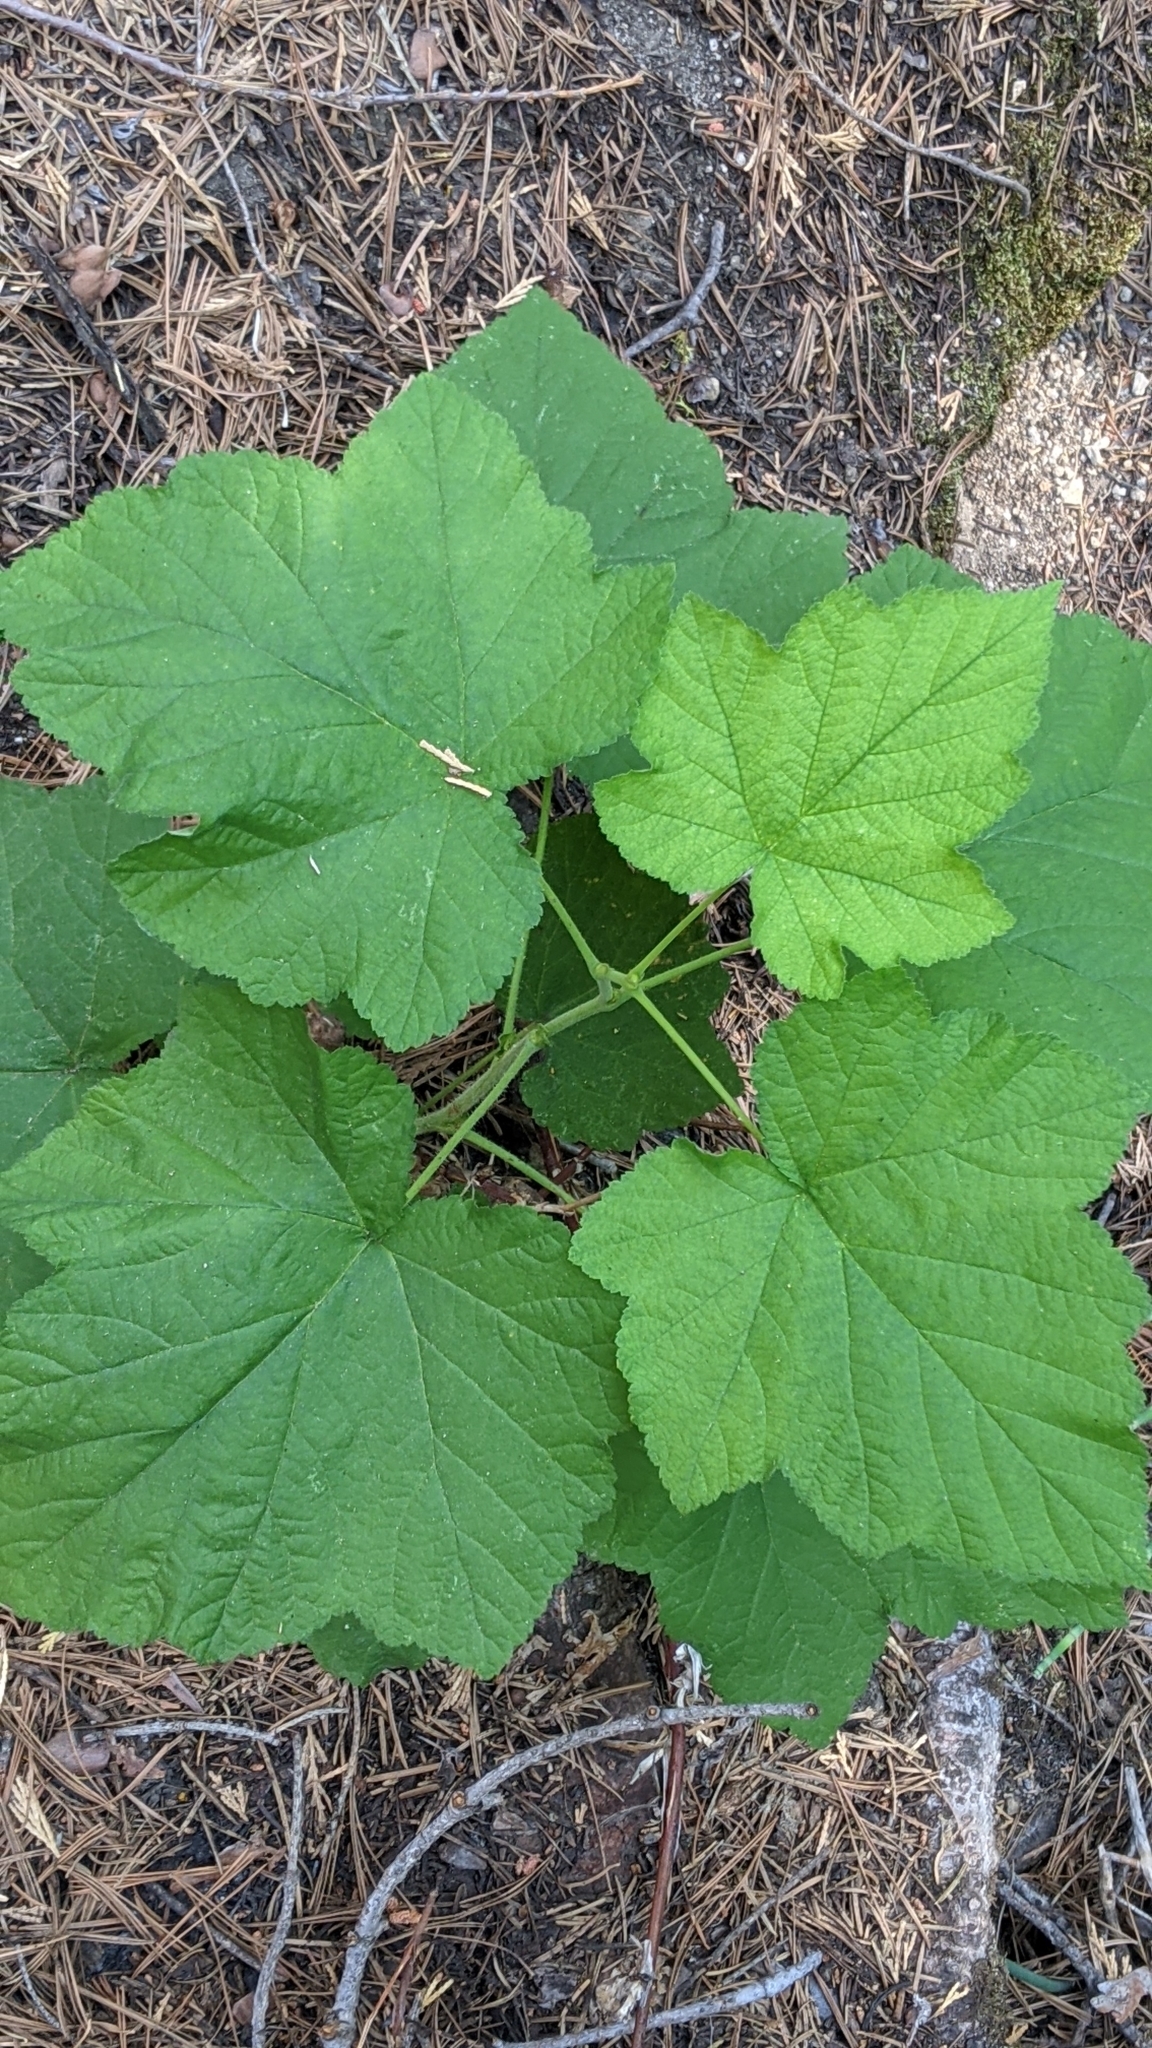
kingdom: Plantae
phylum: Tracheophyta
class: Magnoliopsida
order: Rosales
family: Rosaceae
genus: Rubus
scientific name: Rubus parviflorus
